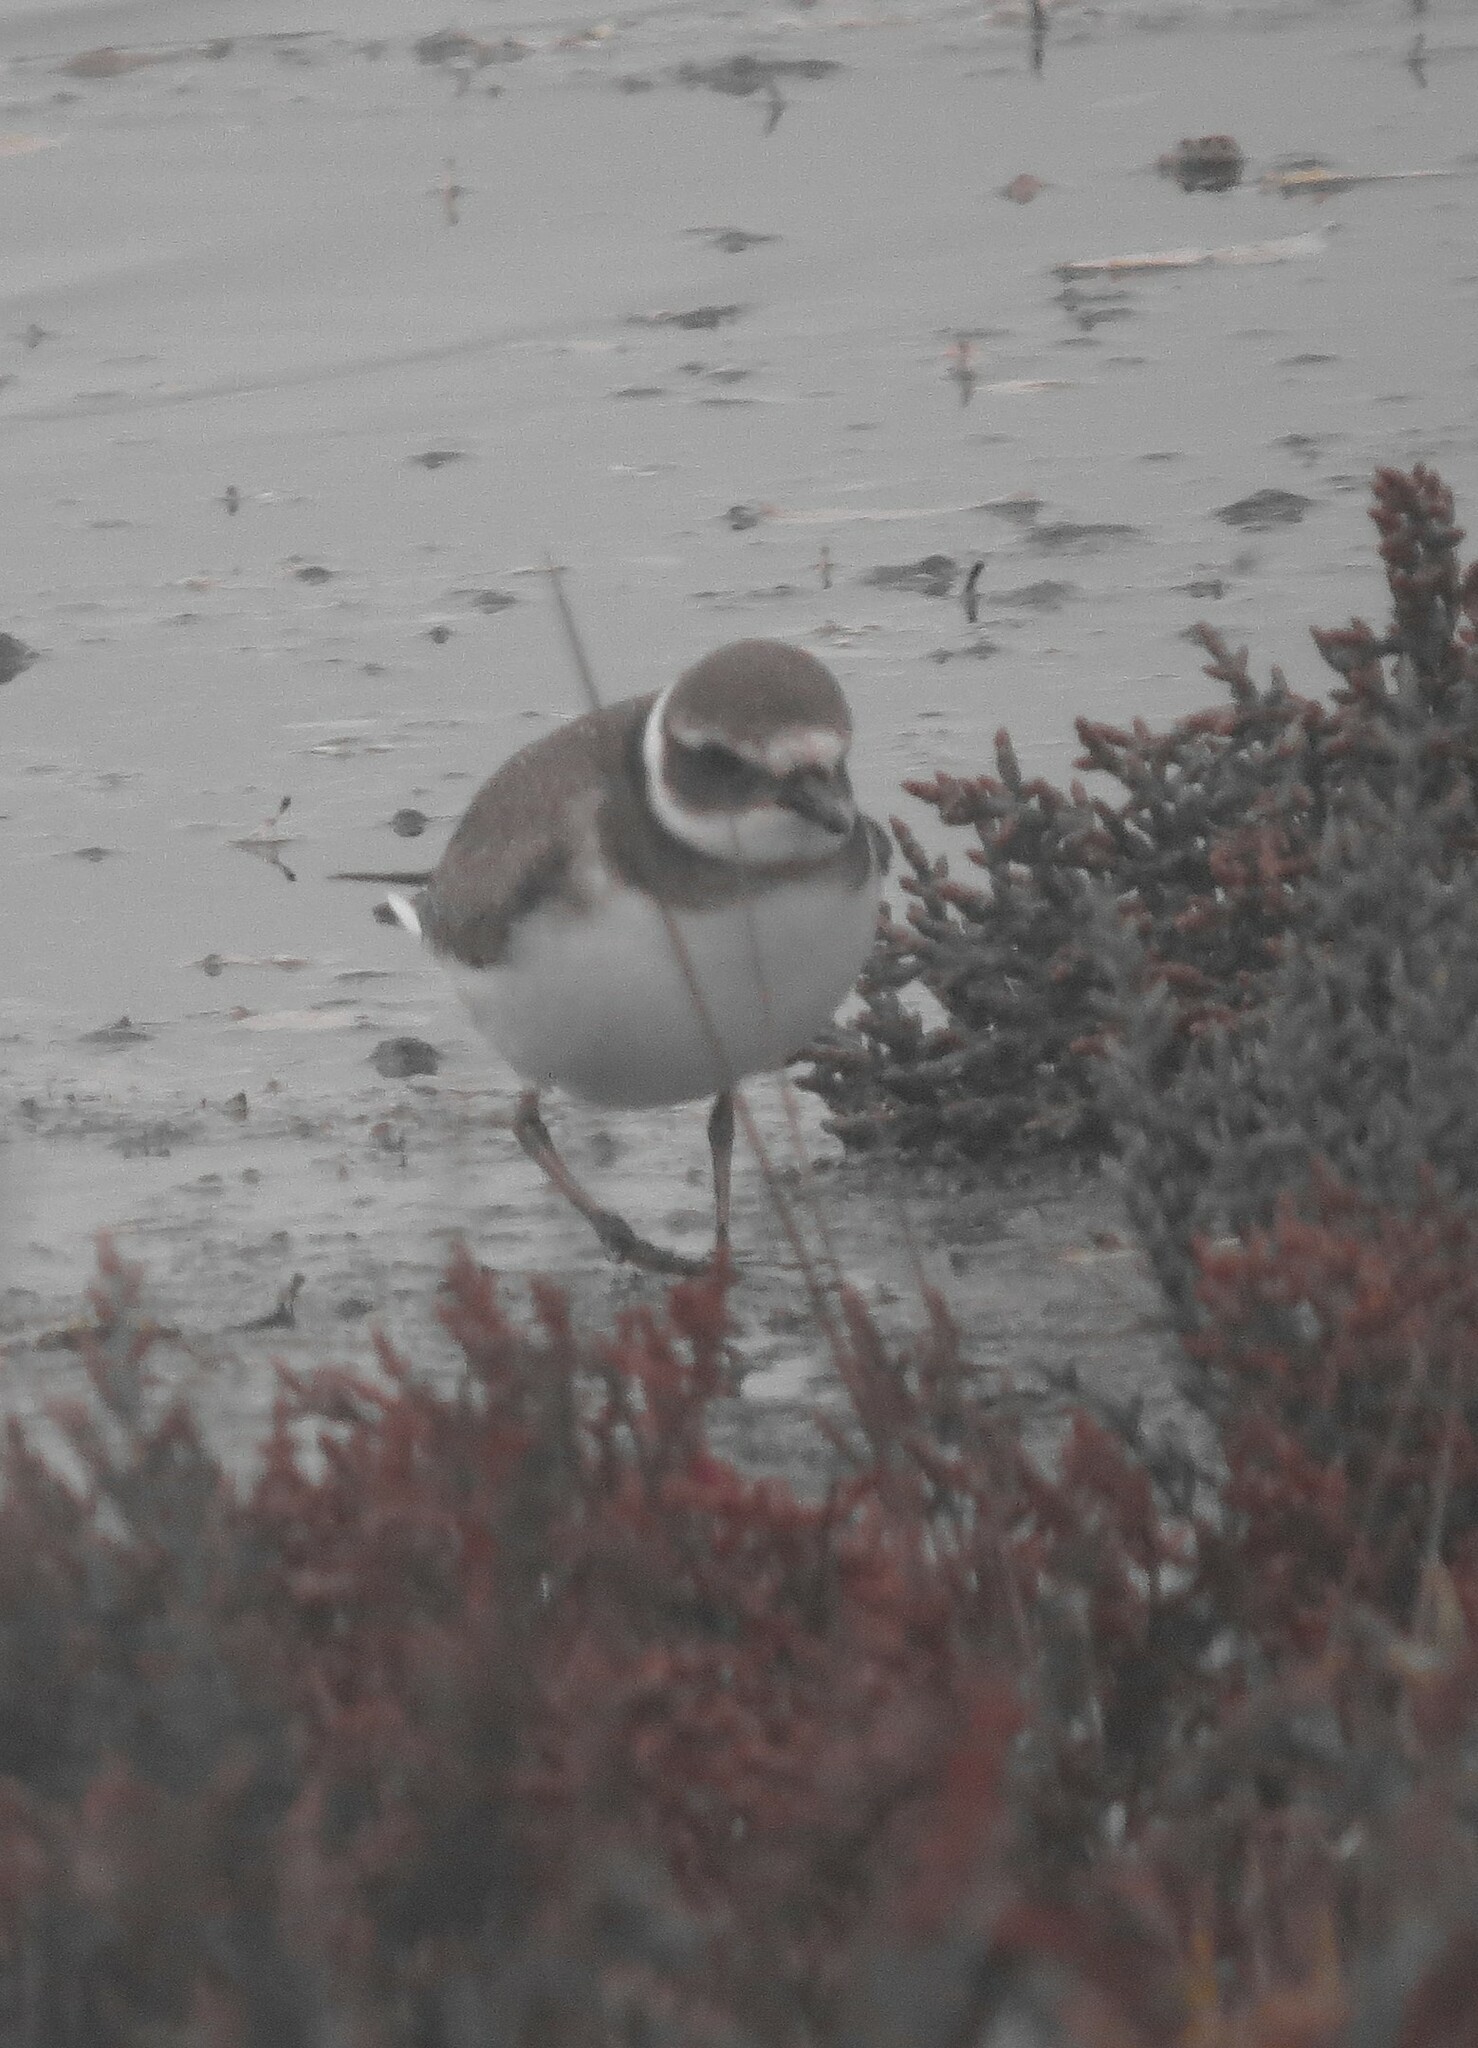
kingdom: Animalia
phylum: Chordata
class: Aves
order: Charadriiformes
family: Charadriidae
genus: Charadrius
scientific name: Charadrius hiaticula
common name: Common ringed plover
